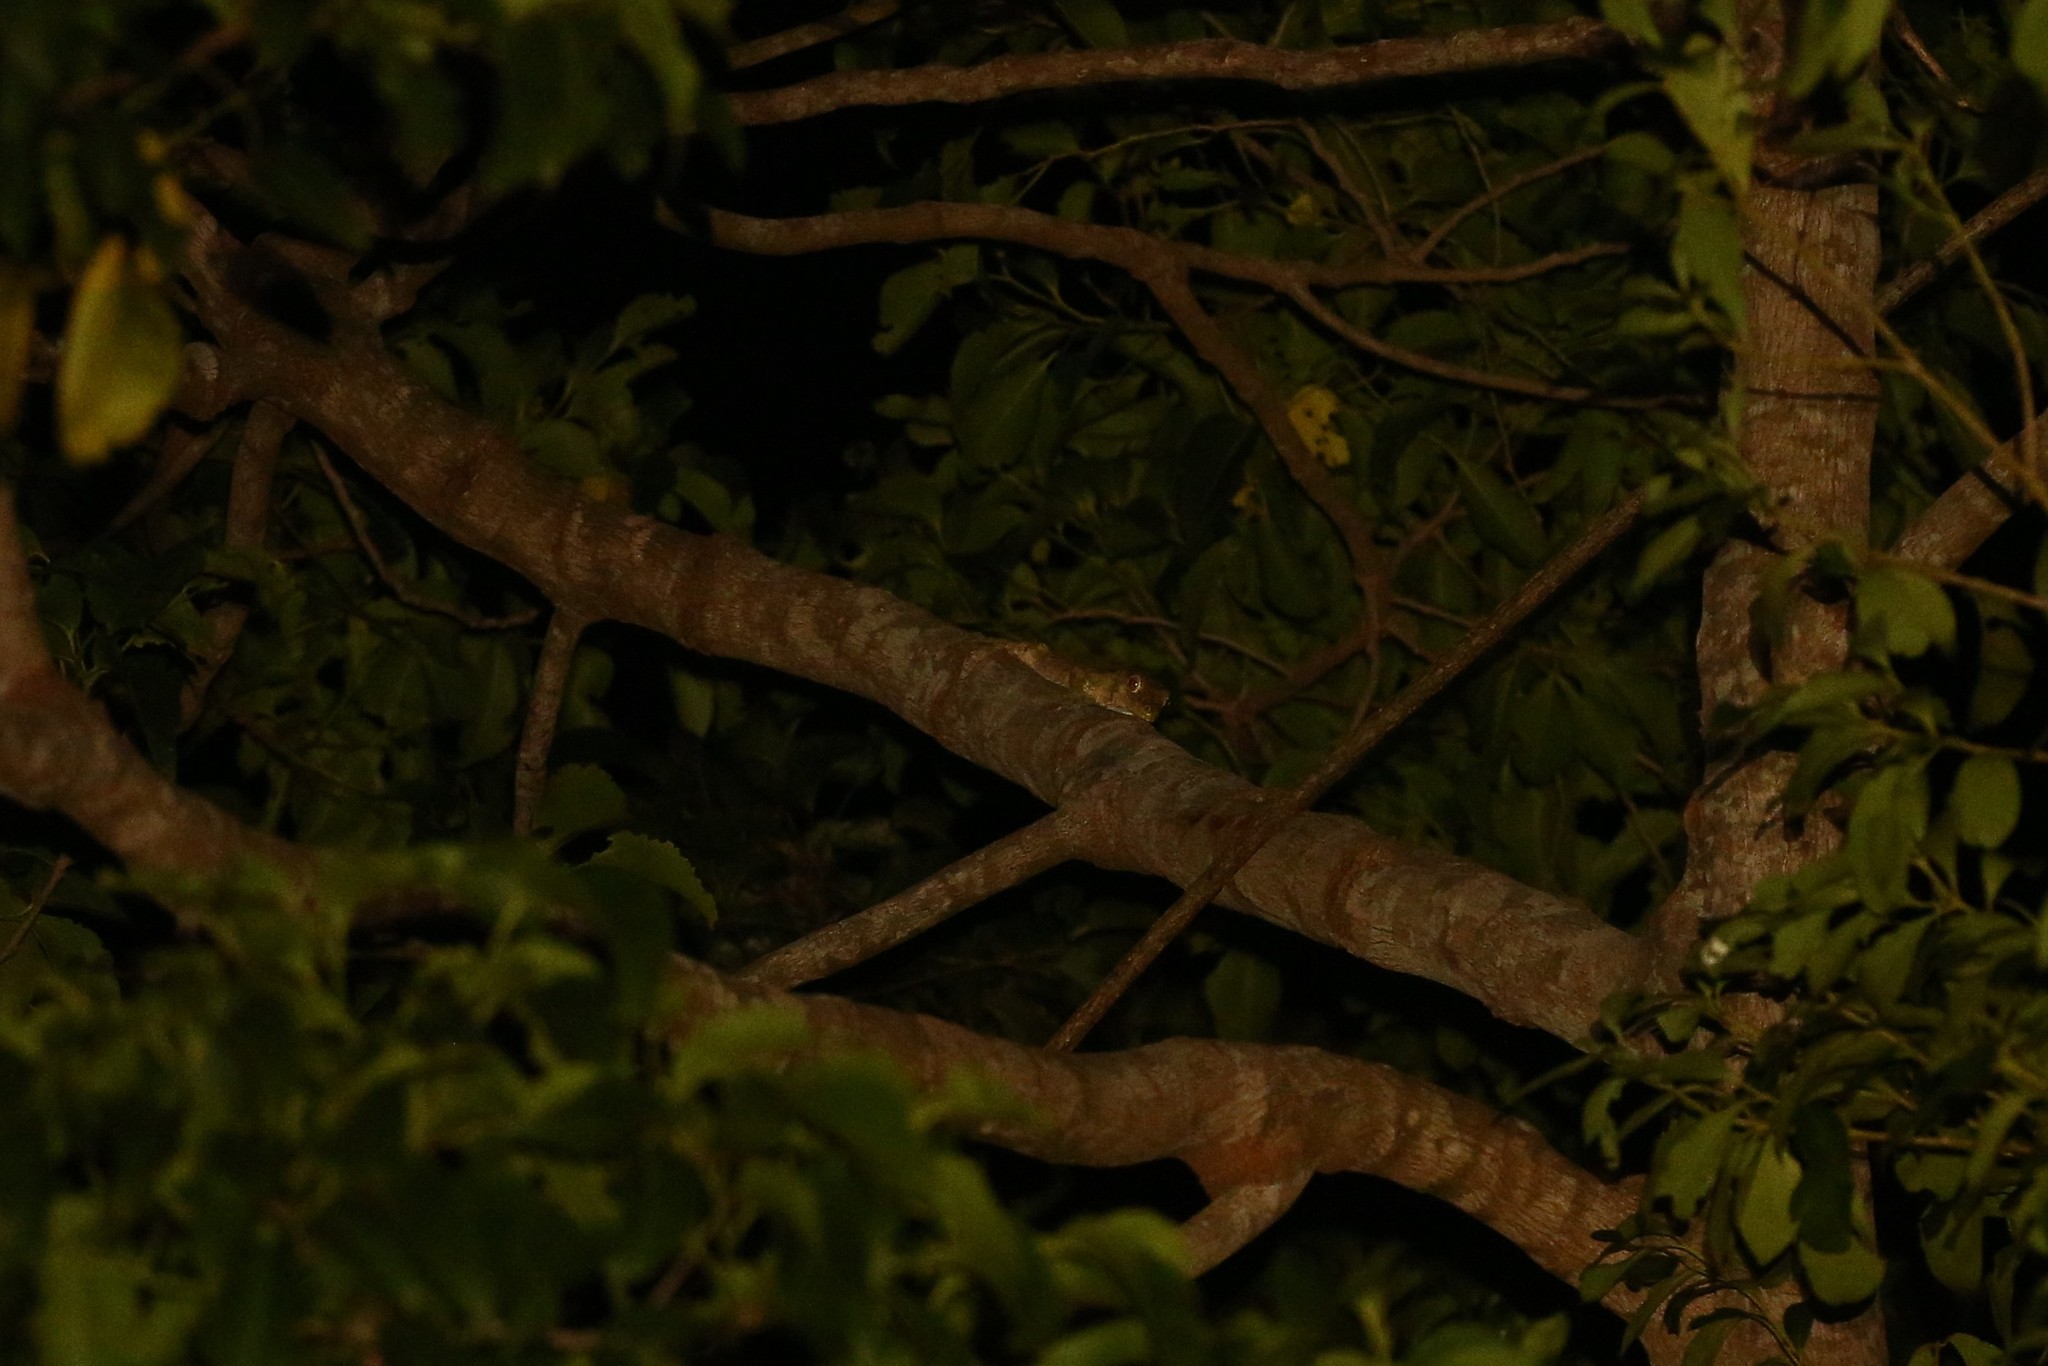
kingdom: Animalia
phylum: Chordata
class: Squamata
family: Diplodactylidae
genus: Mniarogekko
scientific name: Mniarogekko chahoua
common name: Bavay's giant gecko
